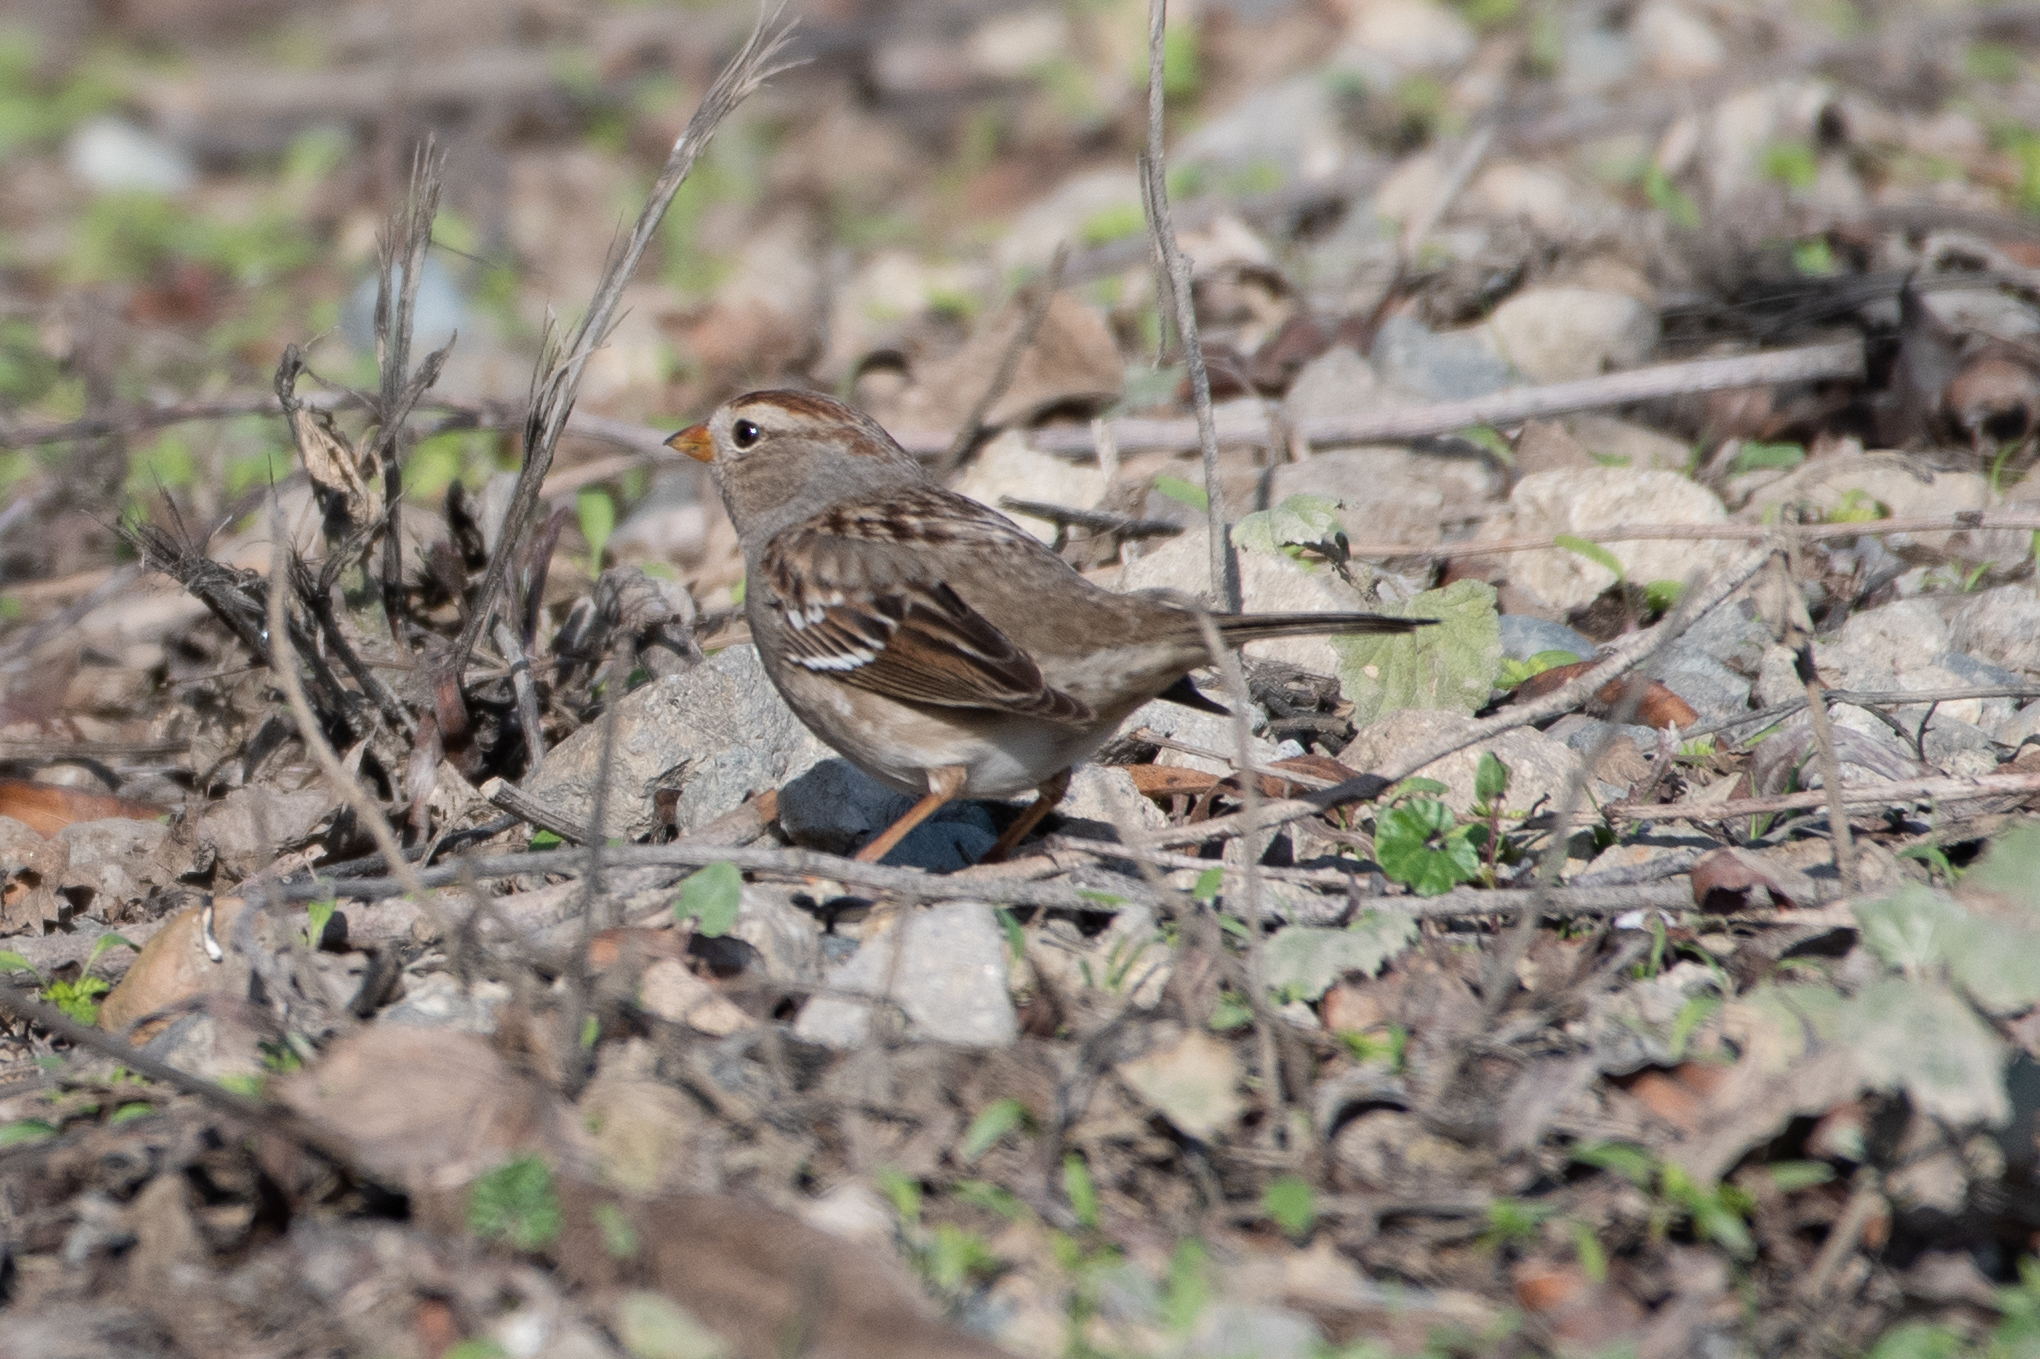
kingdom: Animalia
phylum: Chordata
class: Aves
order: Passeriformes
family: Passerellidae
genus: Zonotrichia
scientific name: Zonotrichia leucophrys
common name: White-crowned sparrow
